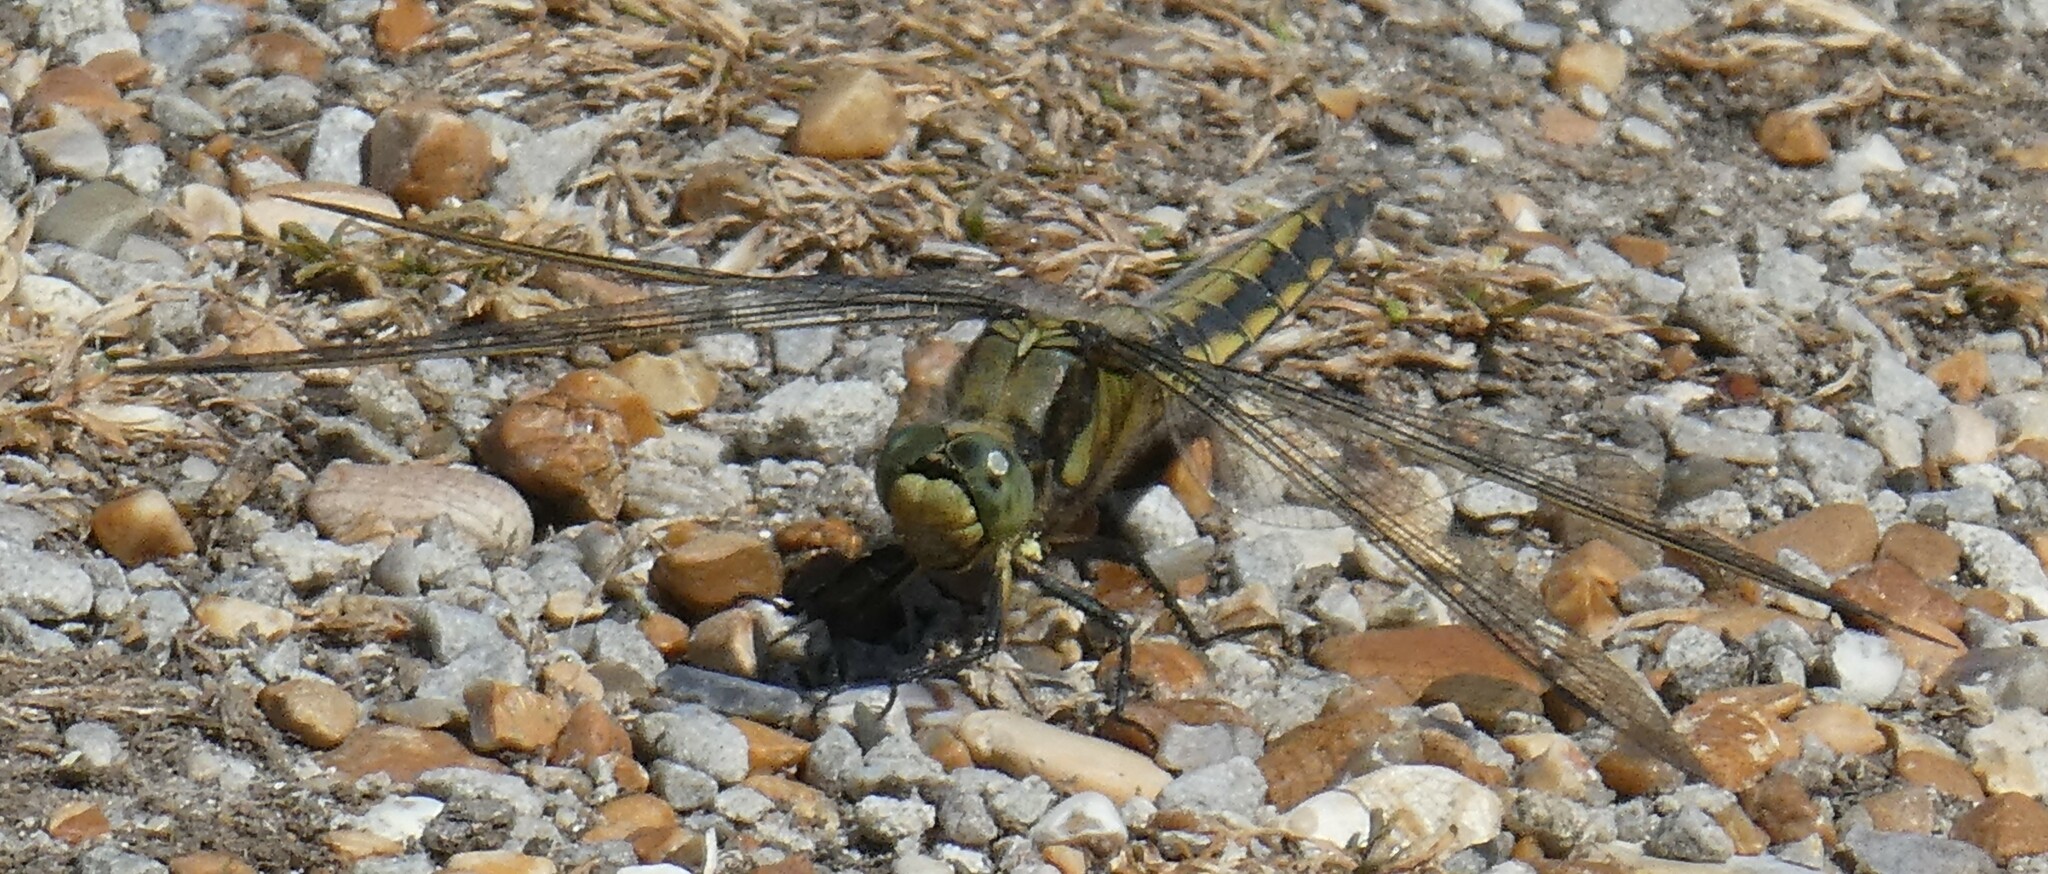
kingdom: Animalia
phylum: Arthropoda
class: Insecta
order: Odonata
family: Libellulidae
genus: Orthetrum
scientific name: Orthetrum cancellatum
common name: Black-tailed skimmer
